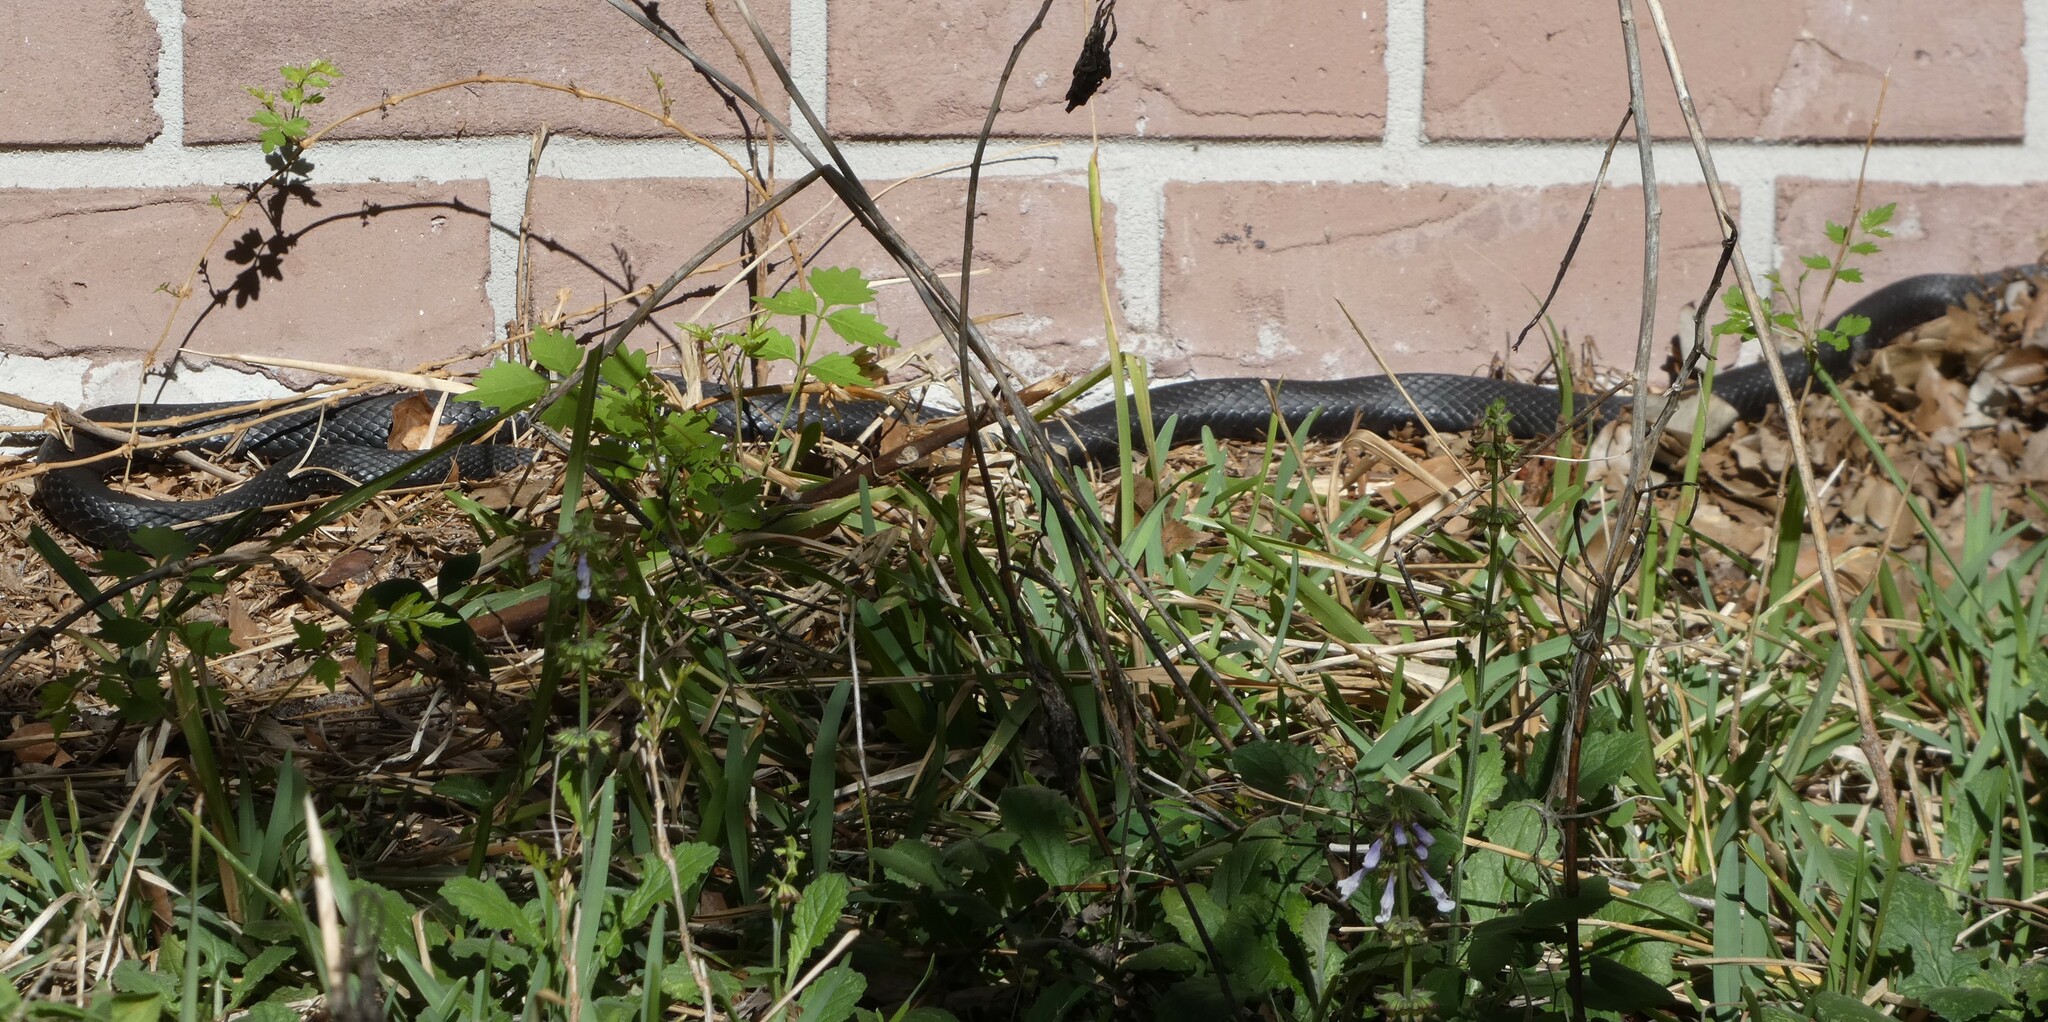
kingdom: Animalia
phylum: Chordata
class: Squamata
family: Colubridae
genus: Coluber
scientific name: Coluber constrictor
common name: Eastern racer
